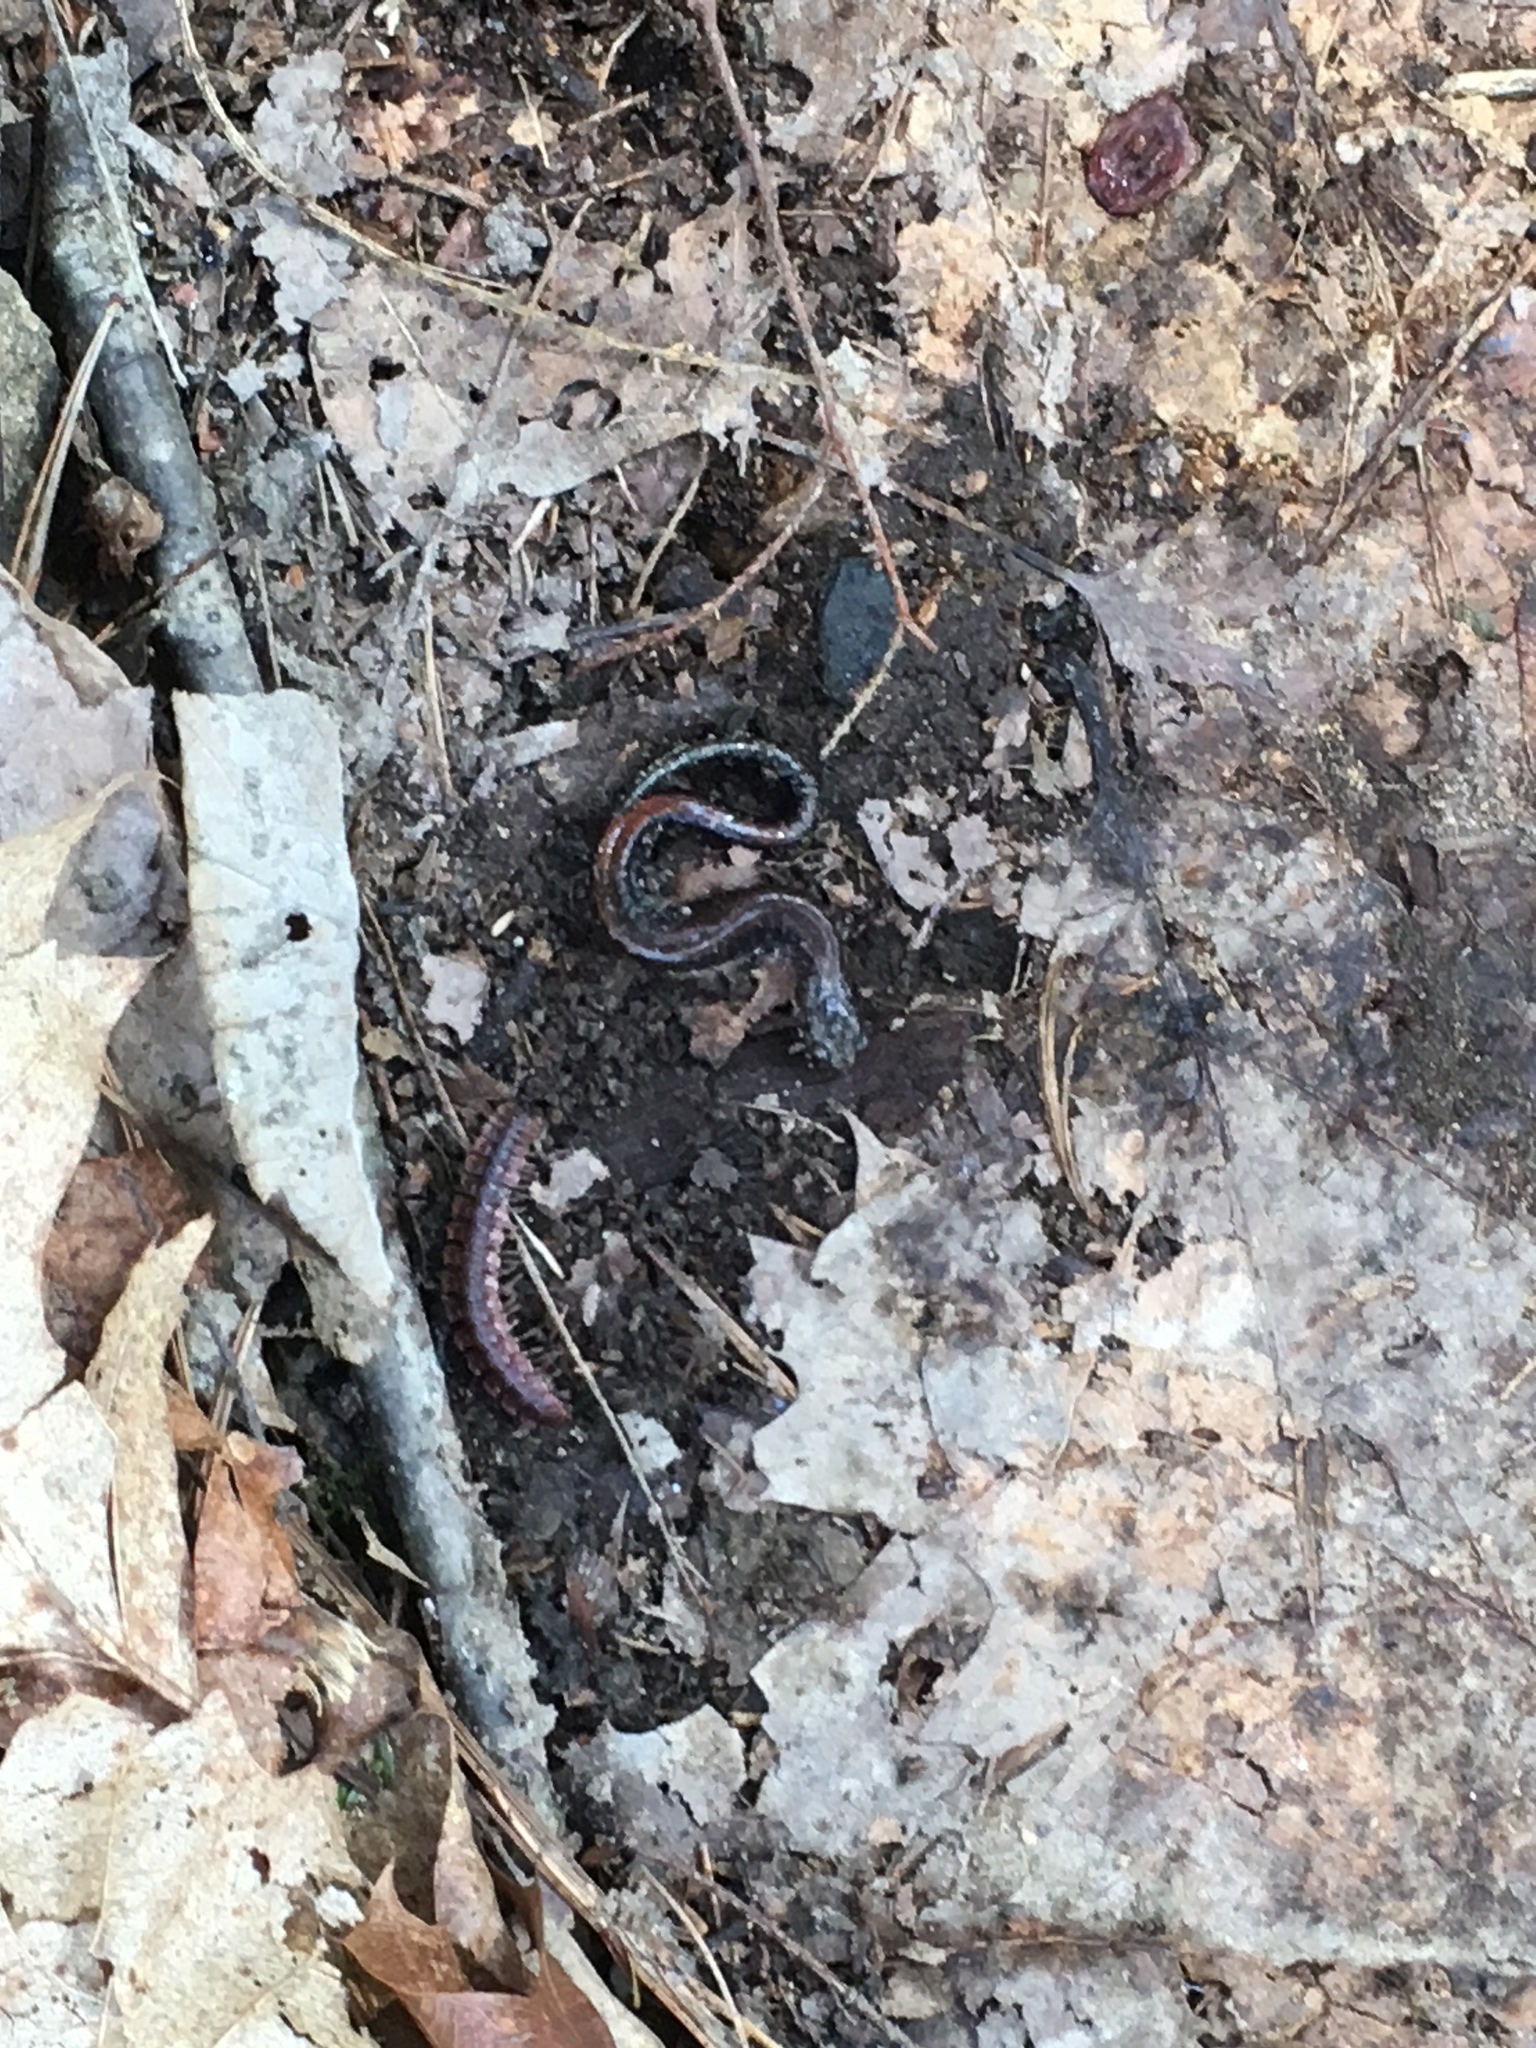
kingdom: Animalia
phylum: Chordata
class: Amphibia
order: Caudata
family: Plethodontidae
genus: Plethodon
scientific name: Plethodon cinereus
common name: Redback salamander
